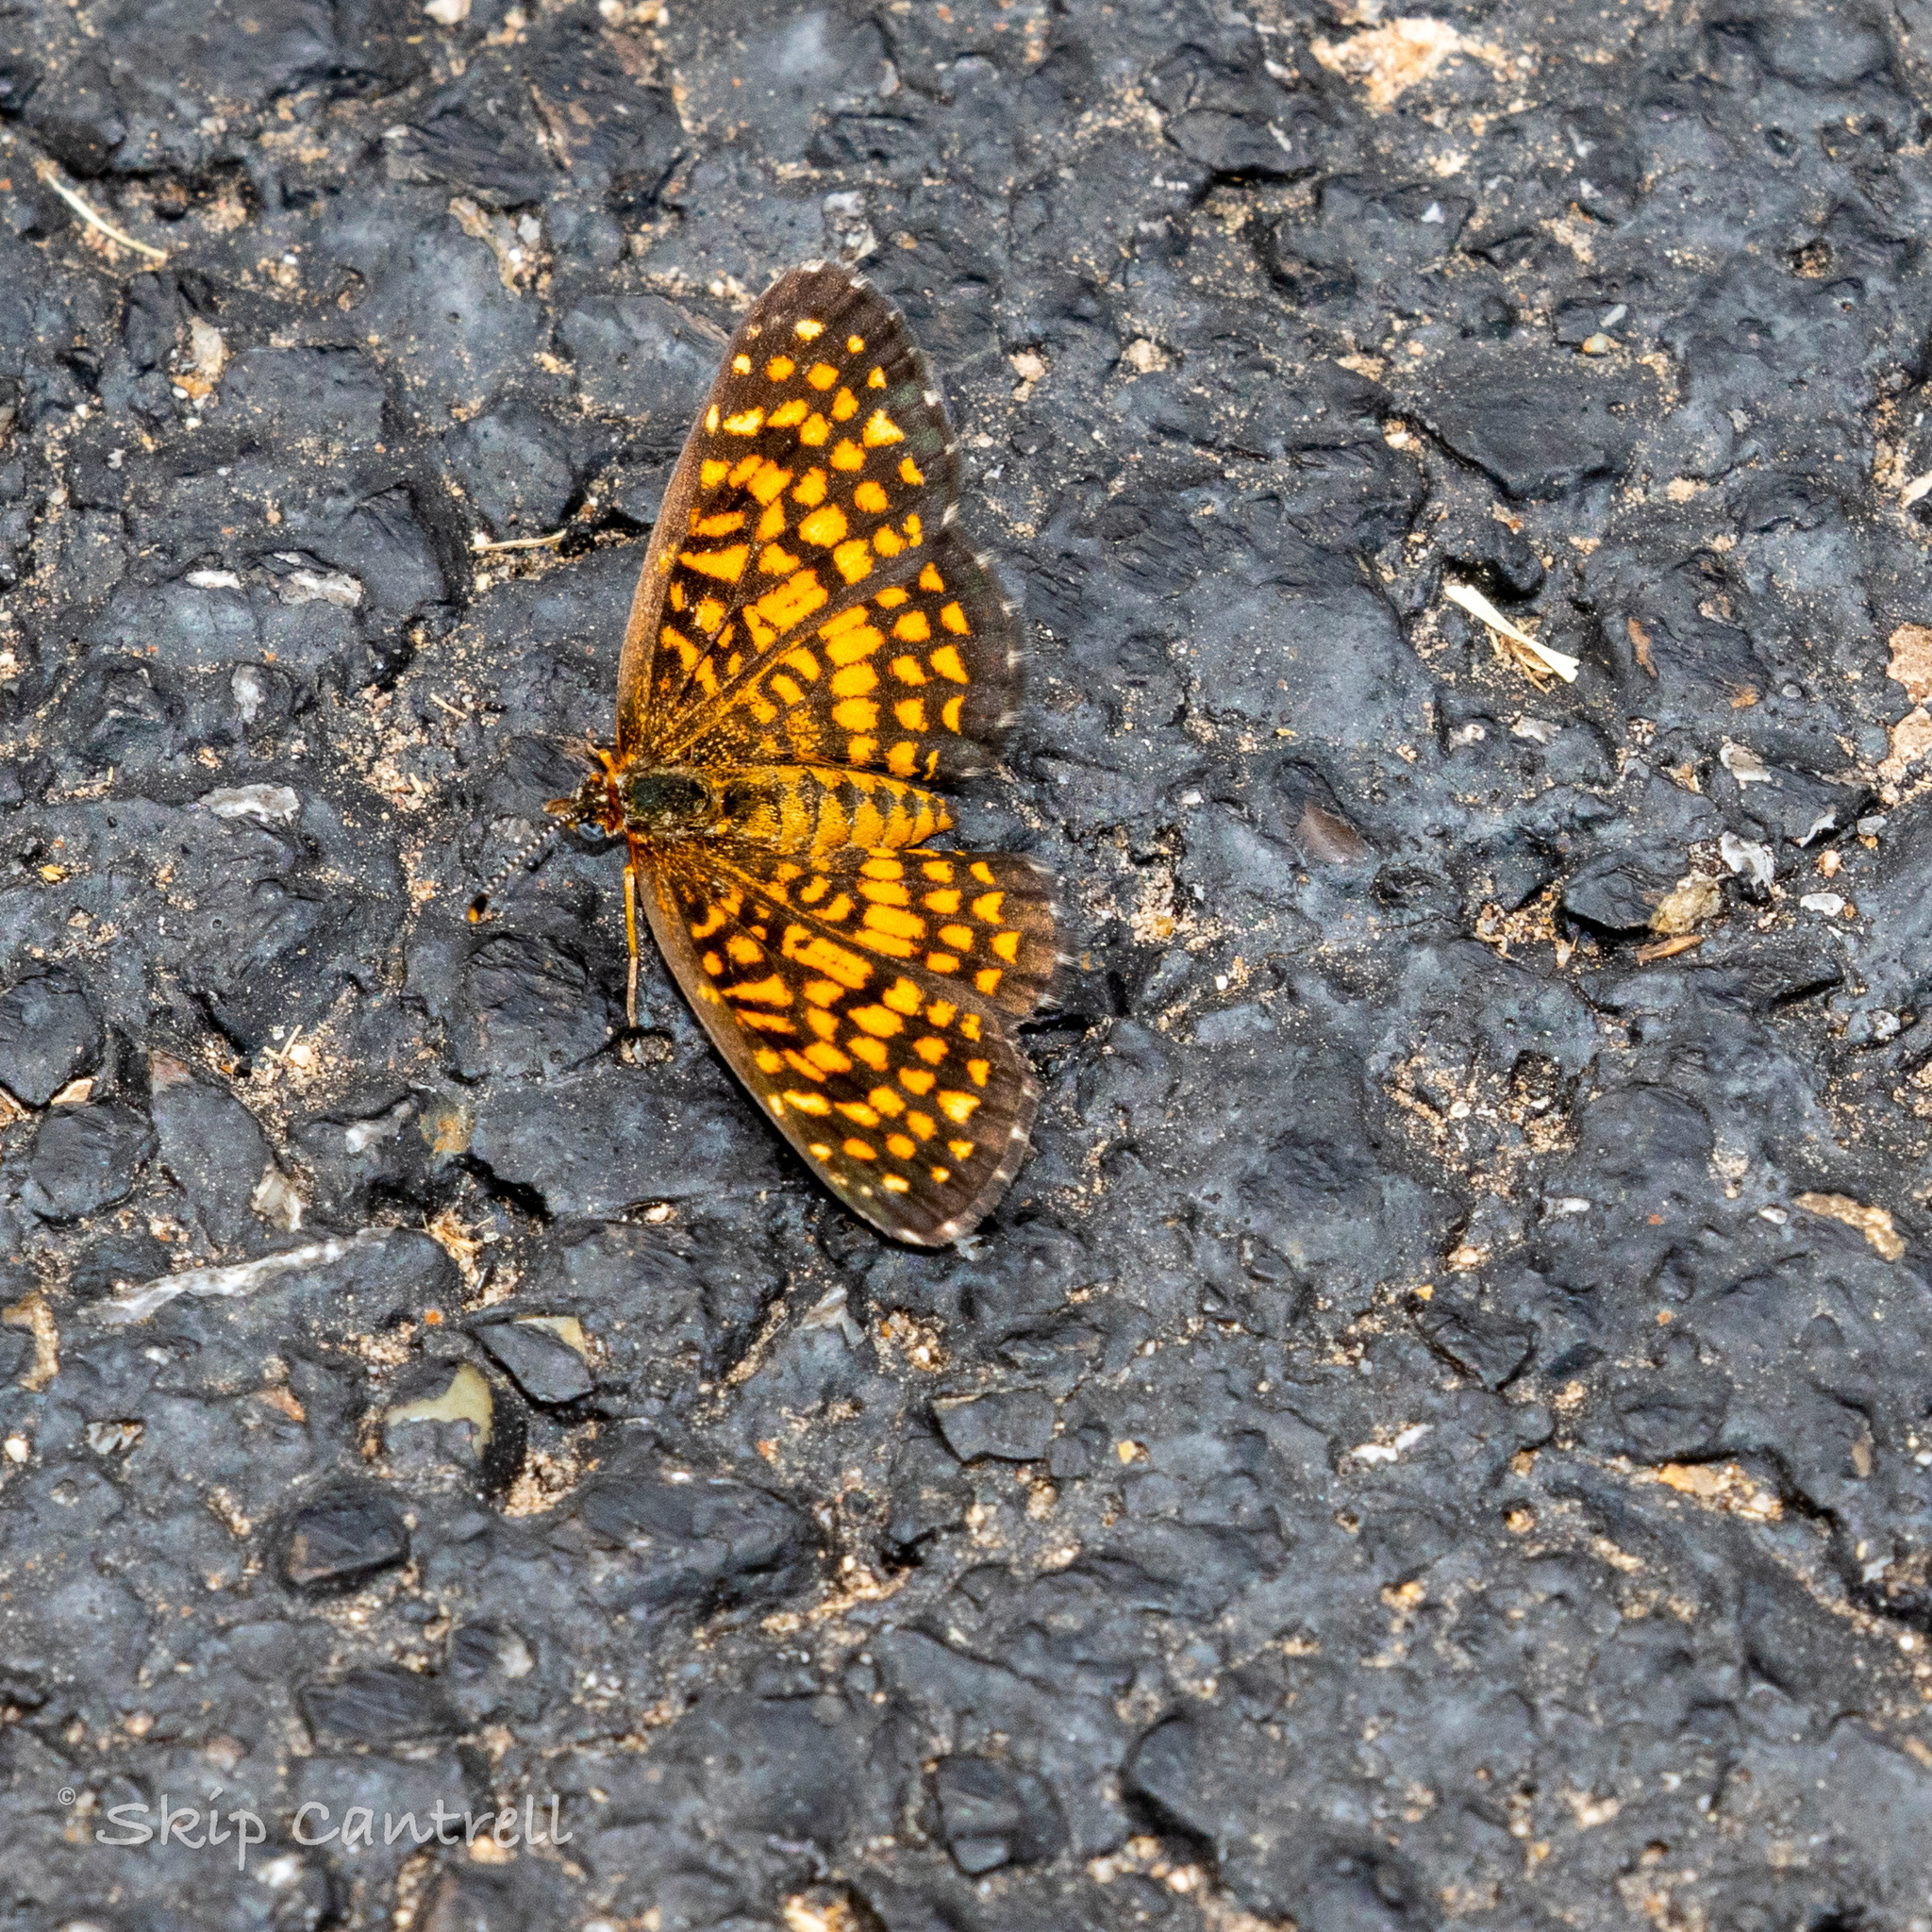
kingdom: Animalia
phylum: Arthropoda
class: Insecta
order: Lepidoptera
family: Nymphalidae
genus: Texola
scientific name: Texola elada
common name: Elada checkerspot
